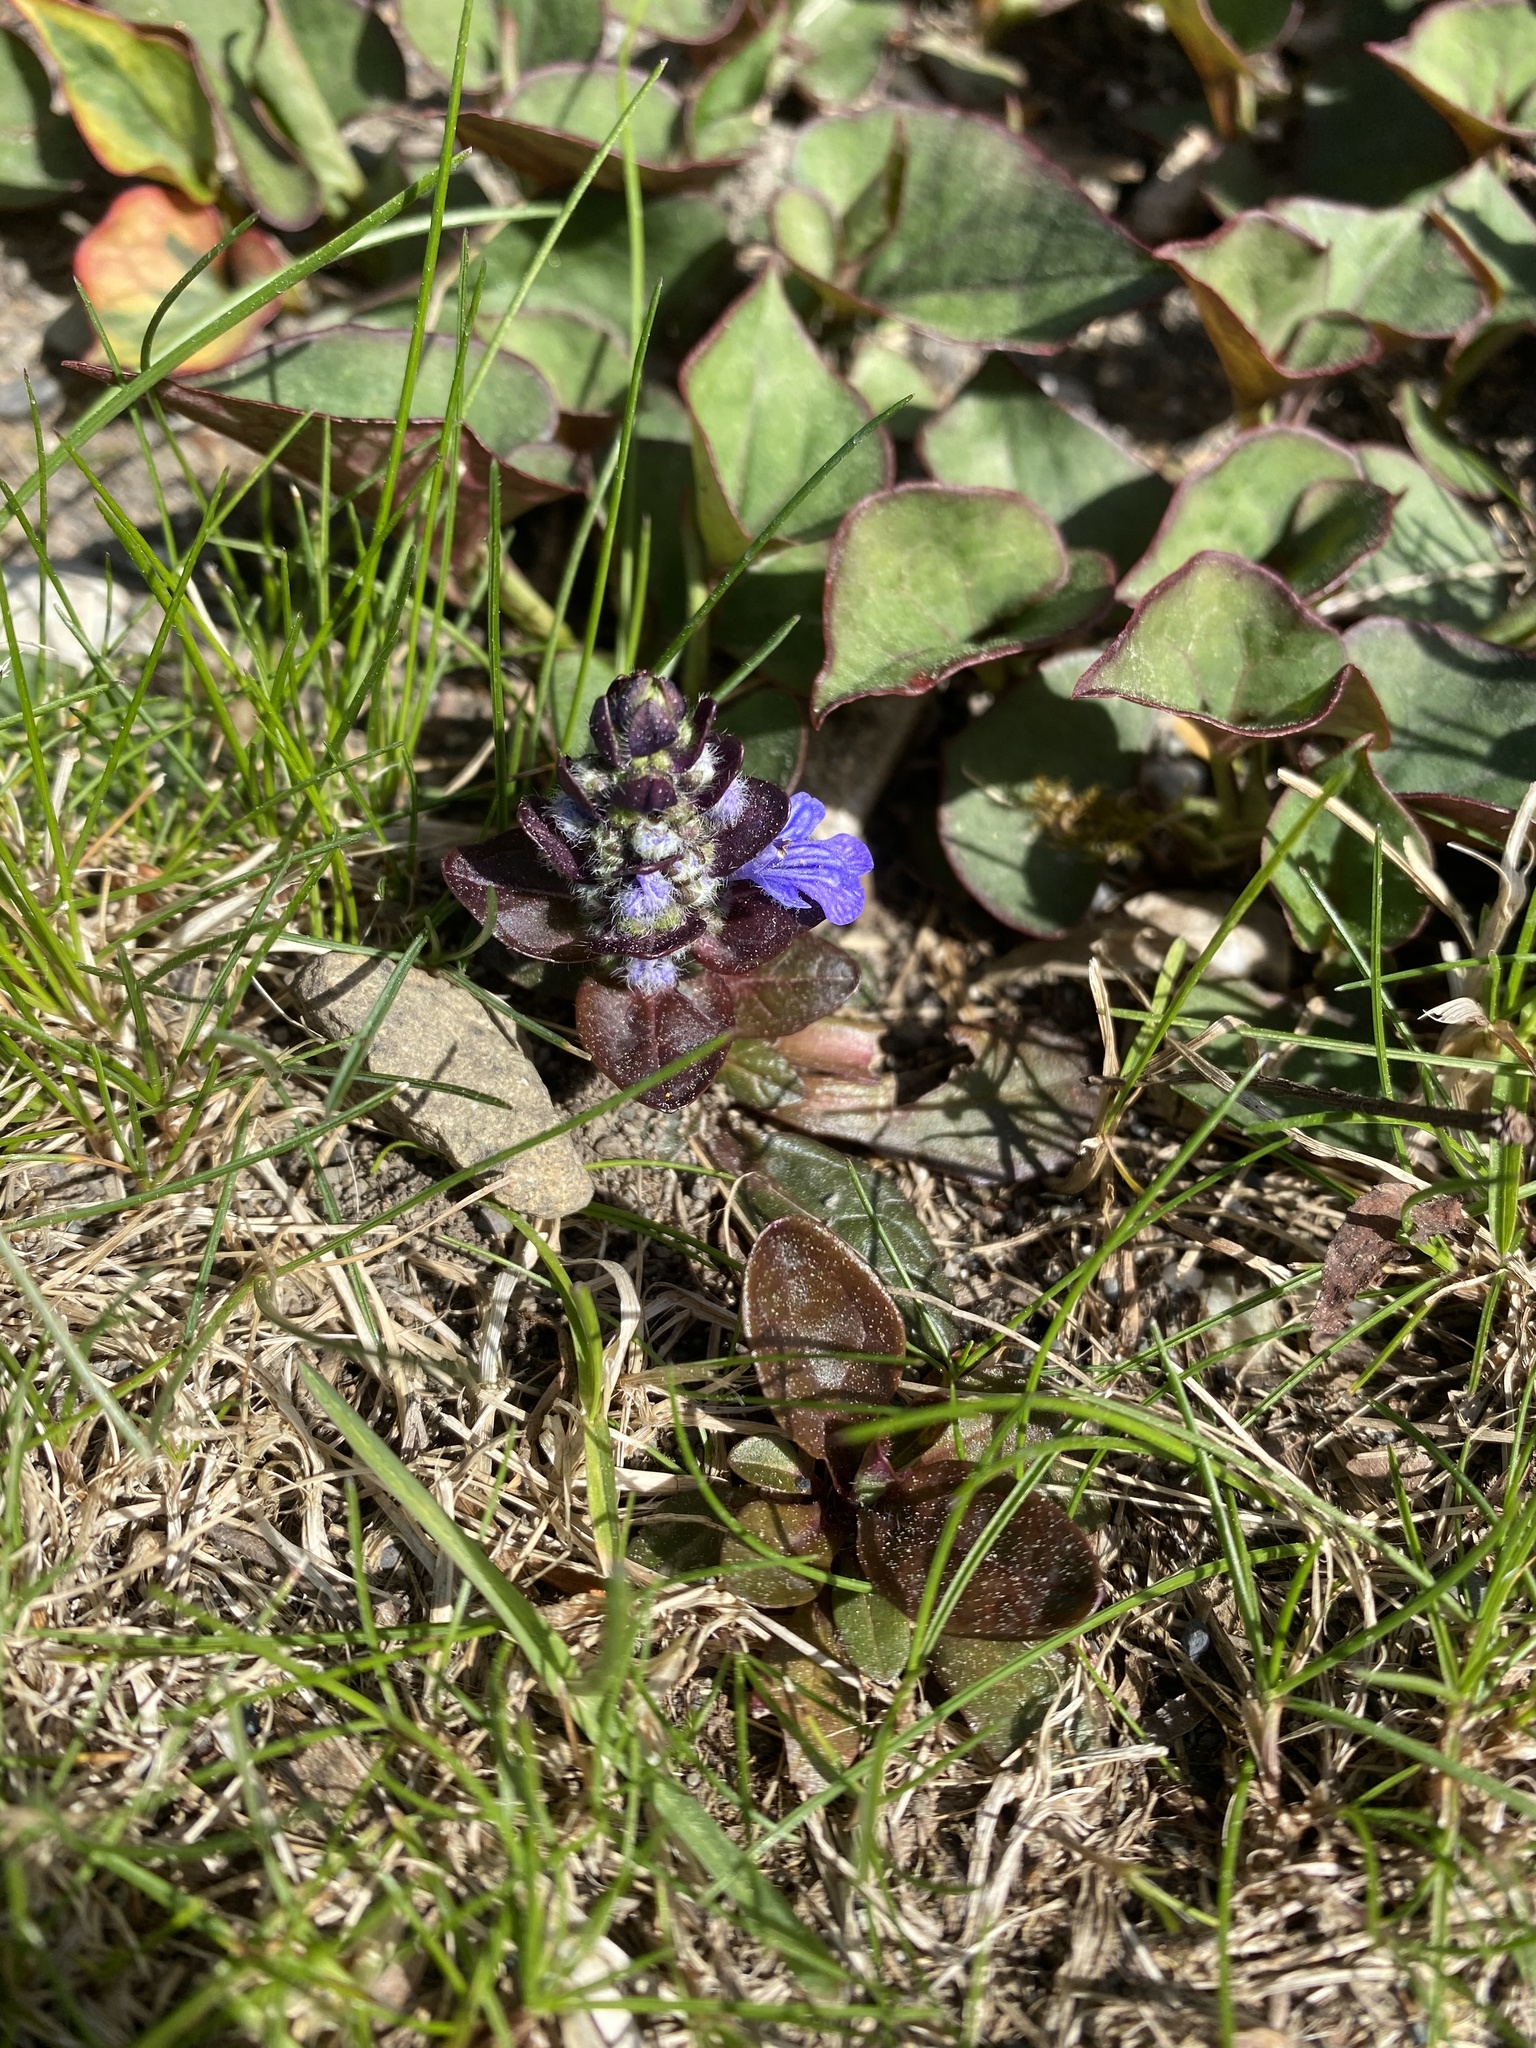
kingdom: Plantae
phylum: Tracheophyta
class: Magnoliopsida
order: Lamiales
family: Lamiaceae
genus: Ajuga
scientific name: Ajuga reptans
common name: Bugle
